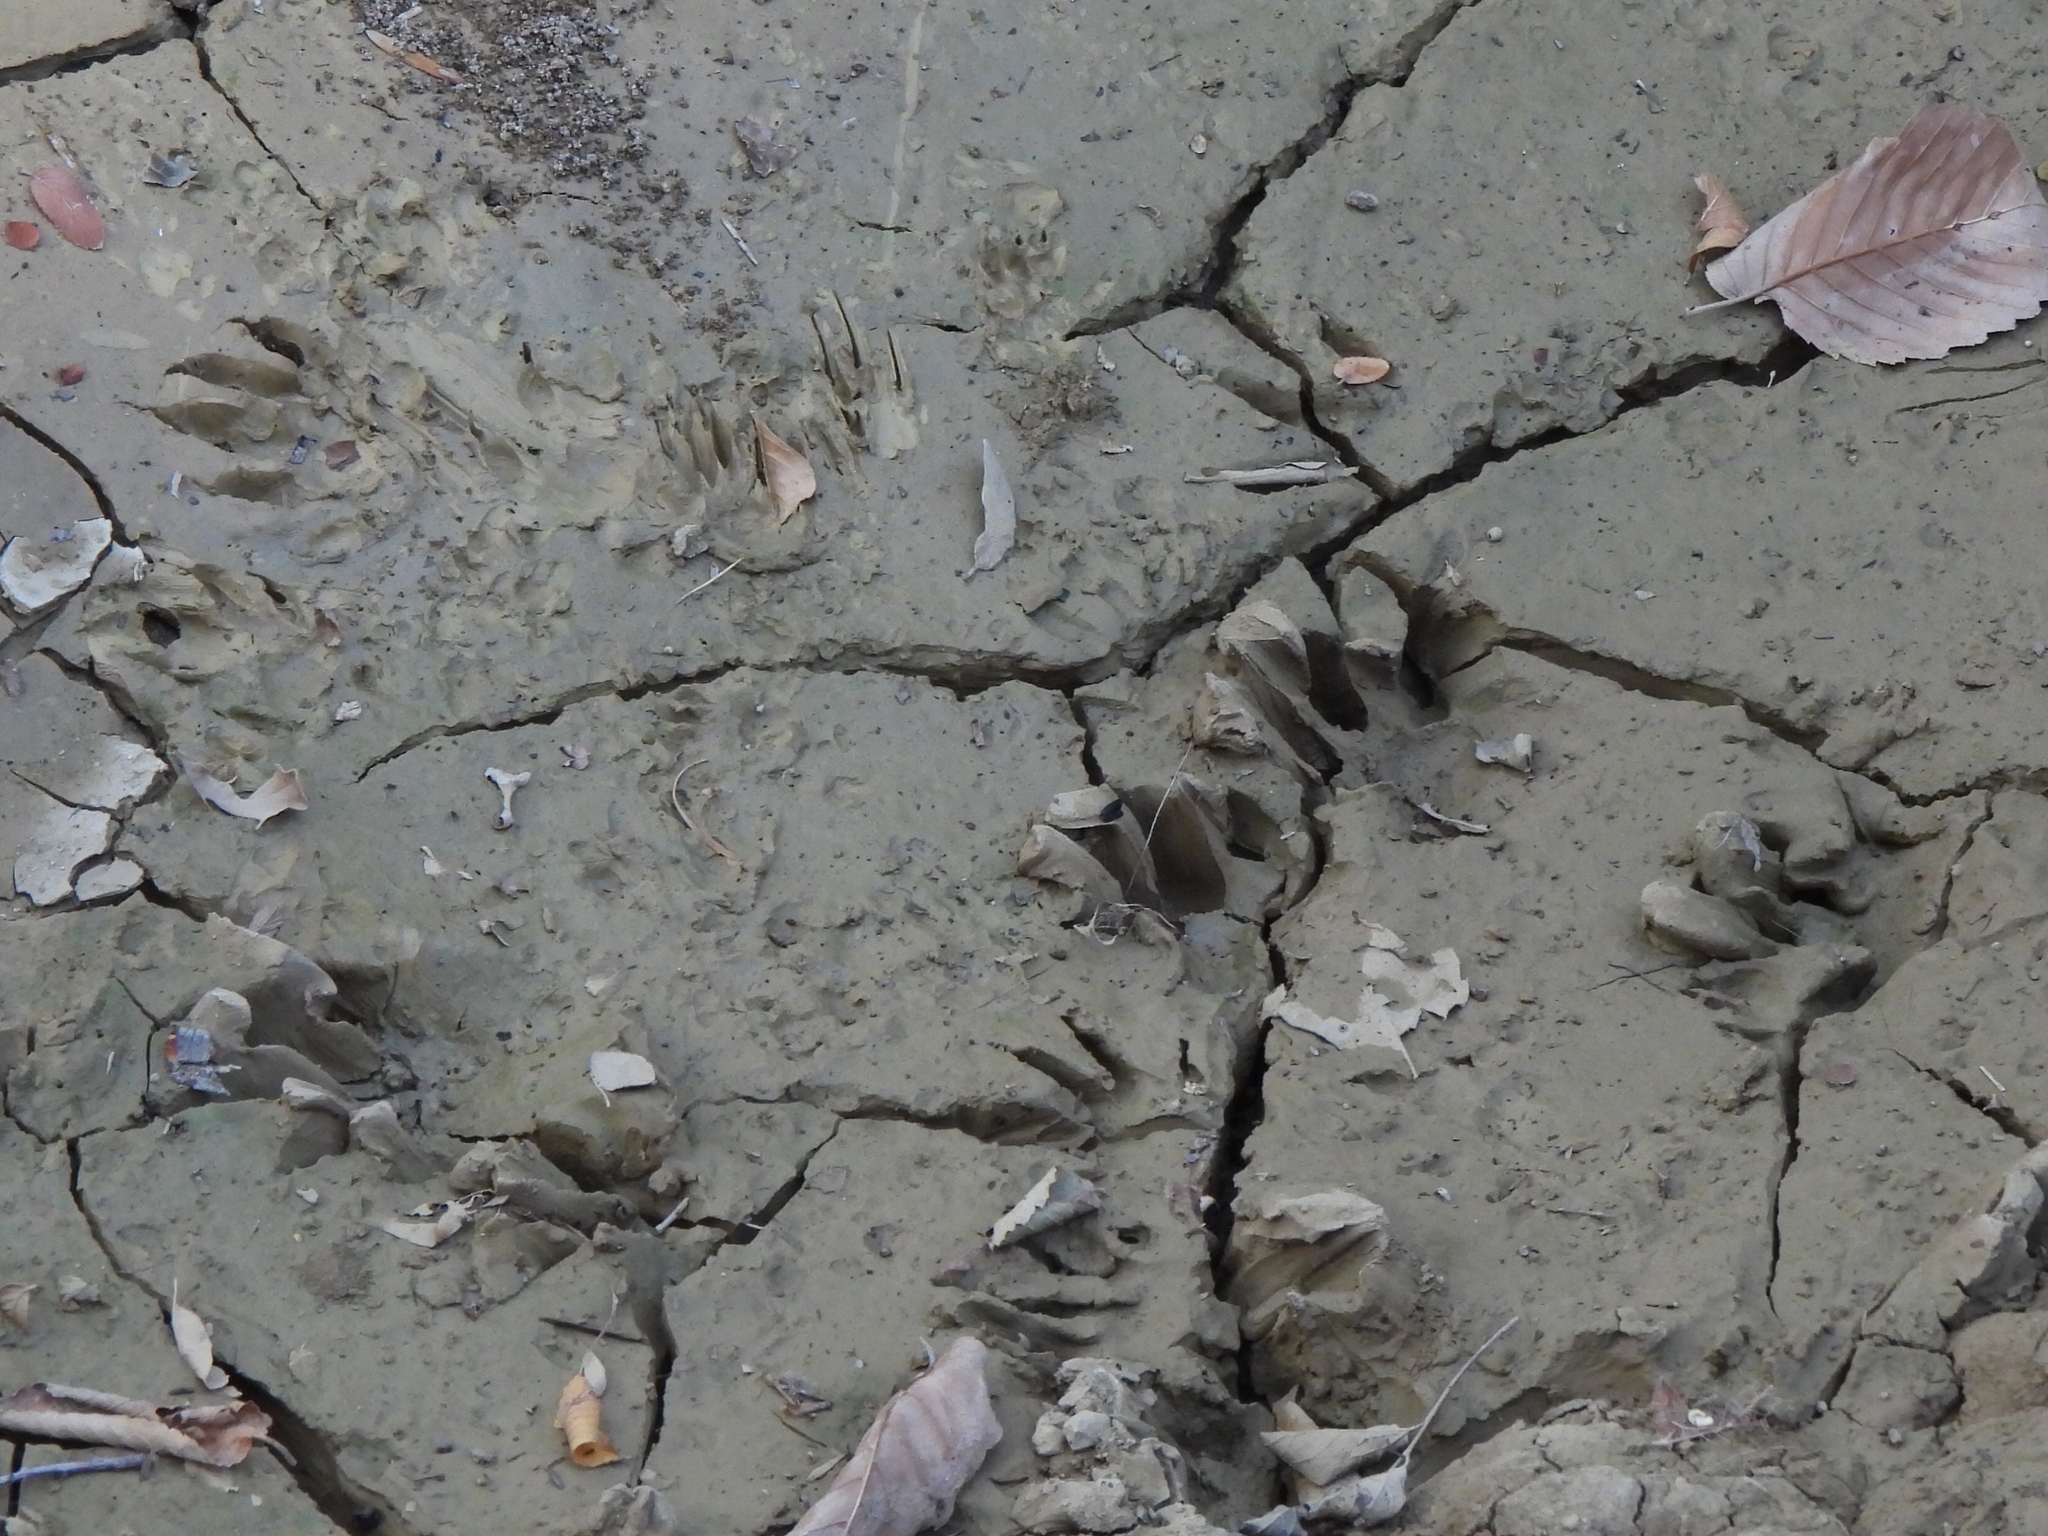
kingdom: Animalia
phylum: Chordata
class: Mammalia
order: Carnivora
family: Procyonidae
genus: Procyon
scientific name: Procyon lotor
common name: Raccoon
